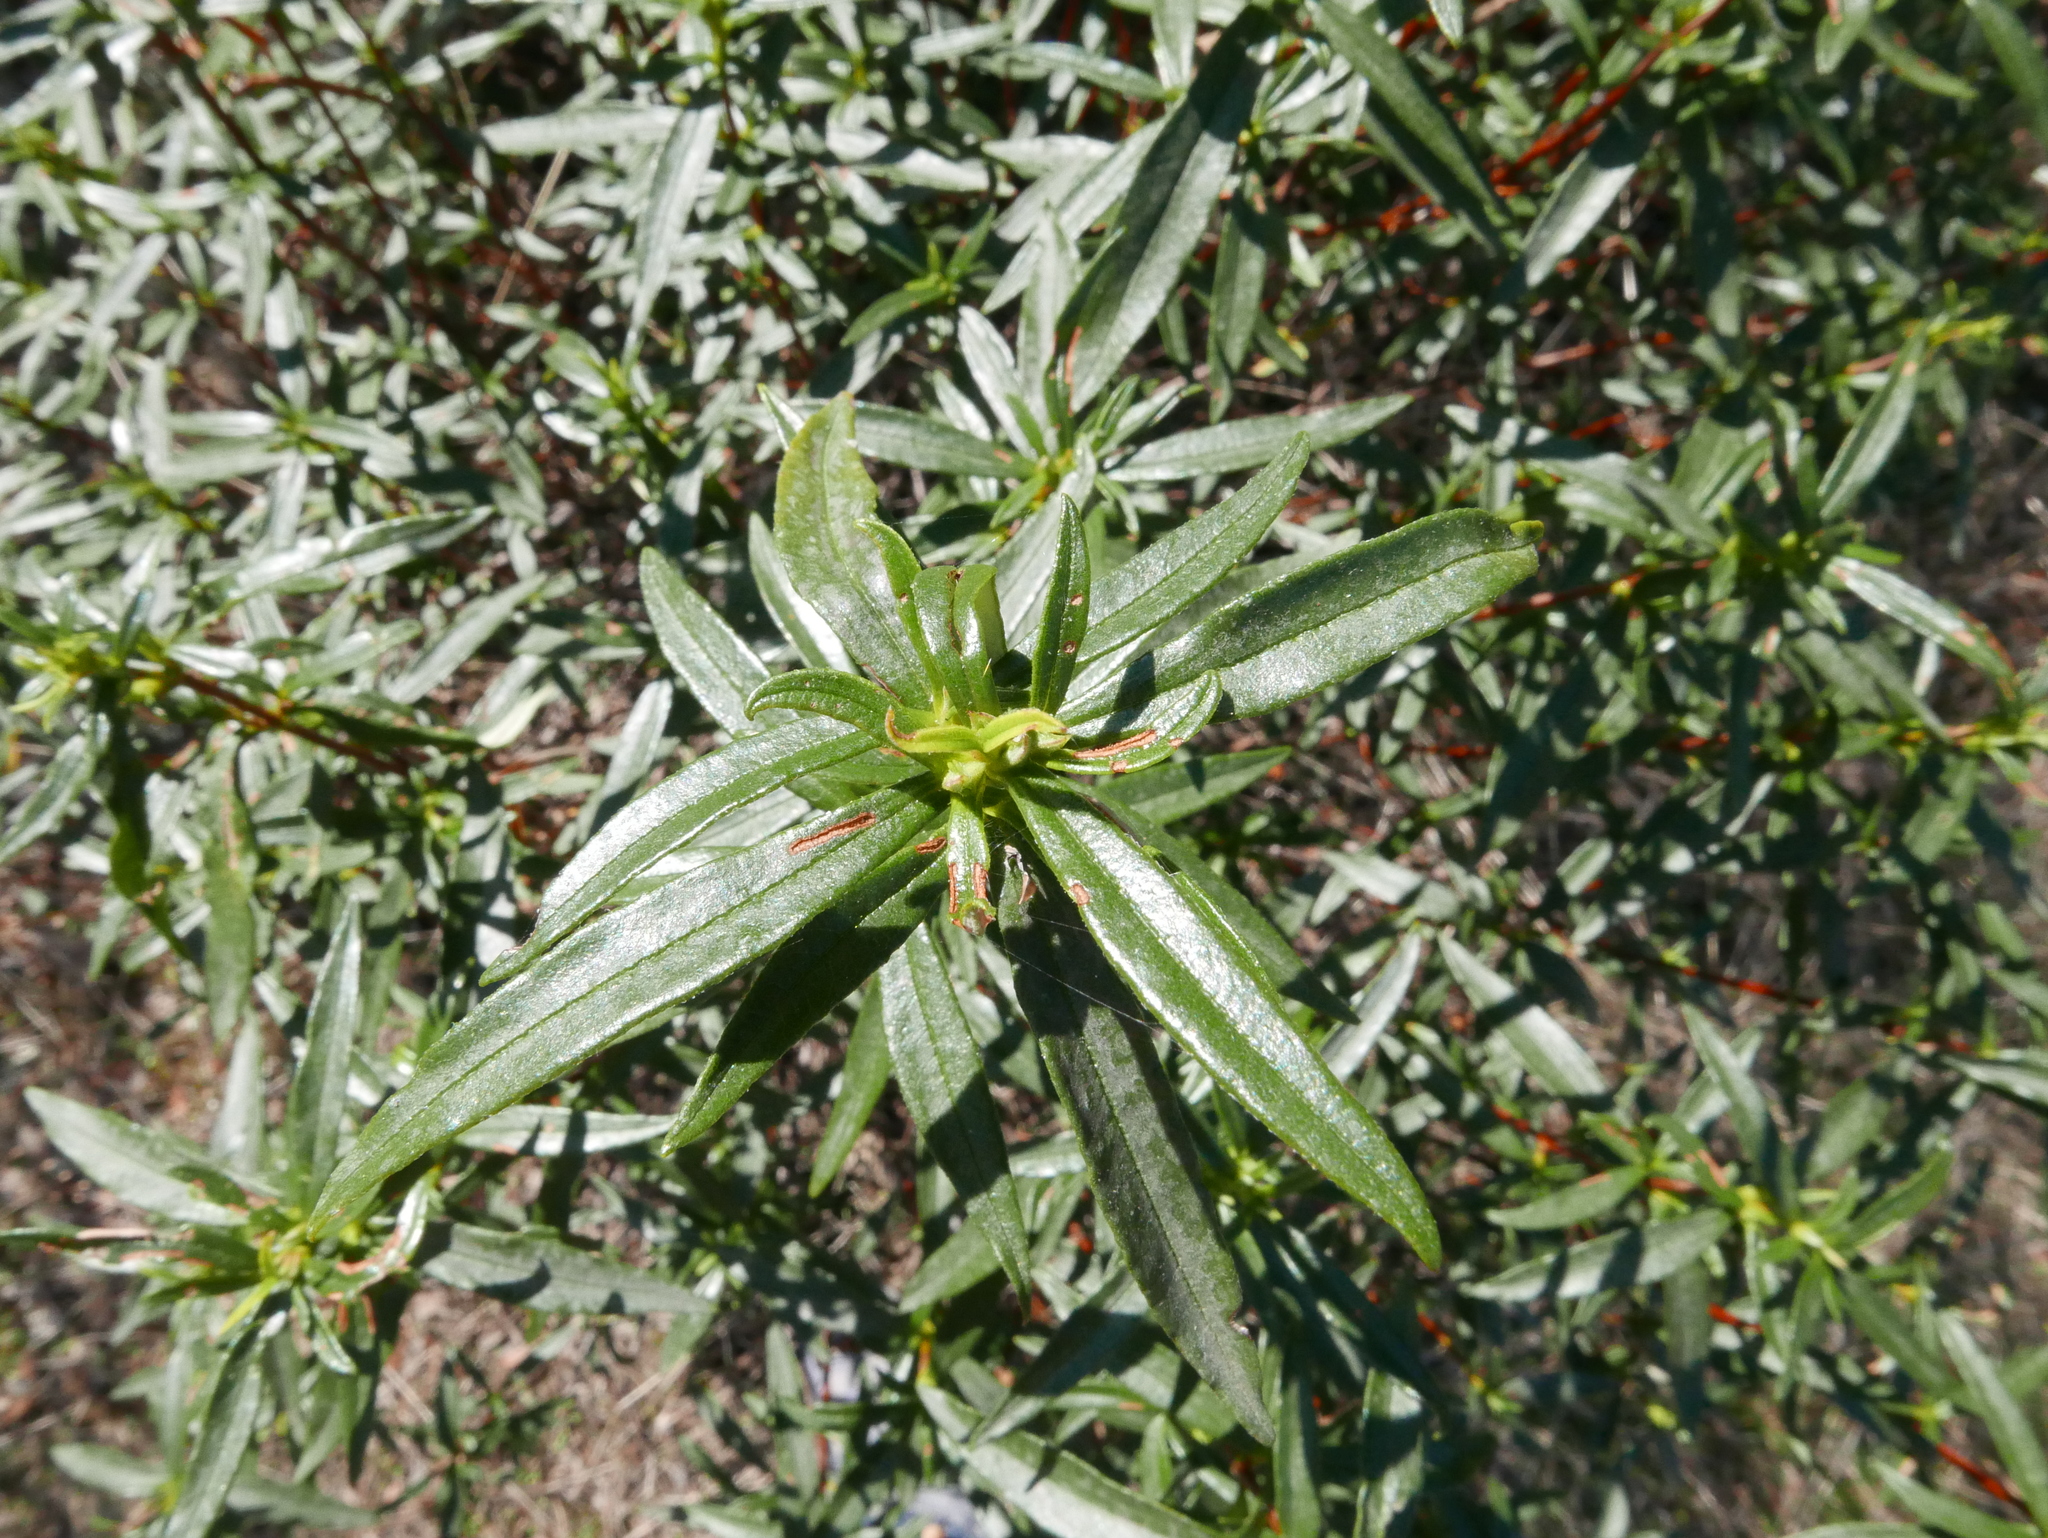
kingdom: Plantae
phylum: Tracheophyta
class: Magnoliopsida
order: Malvales
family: Cistaceae
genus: Cistus
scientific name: Cistus ladanifer
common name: Common gum cistus
